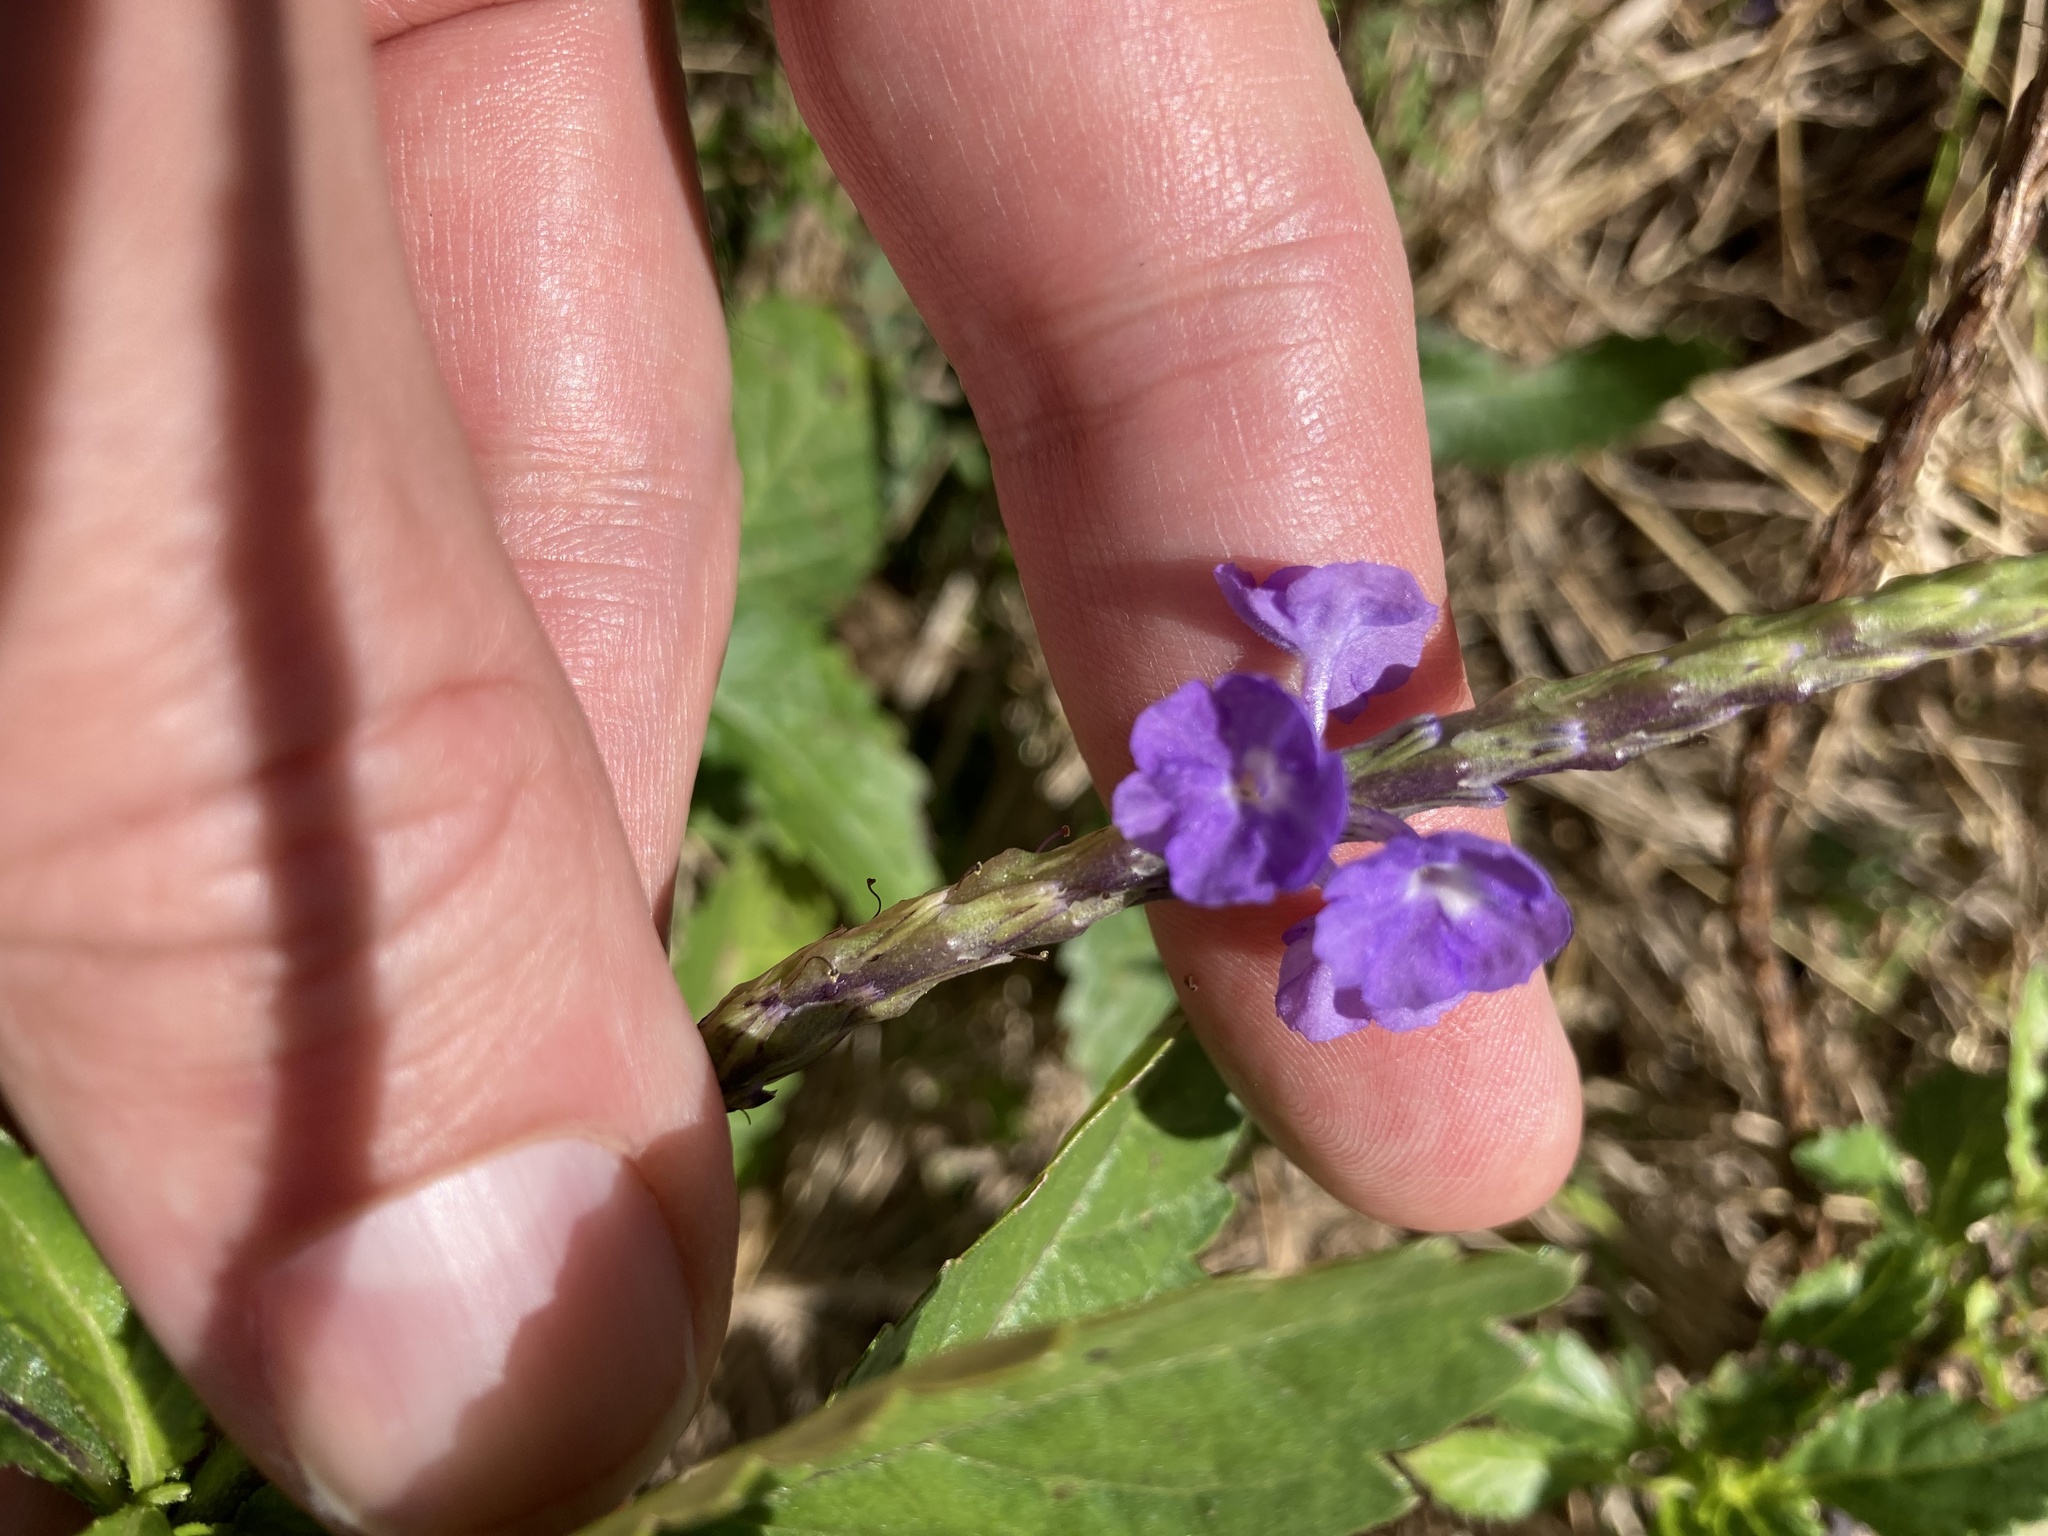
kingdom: Plantae
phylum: Tracheophyta
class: Magnoliopsida
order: Lamiales
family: Verbenaceae
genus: Stachytarpheta
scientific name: Stachytarpheta jamaicensis
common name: Light-blue snakeweed
